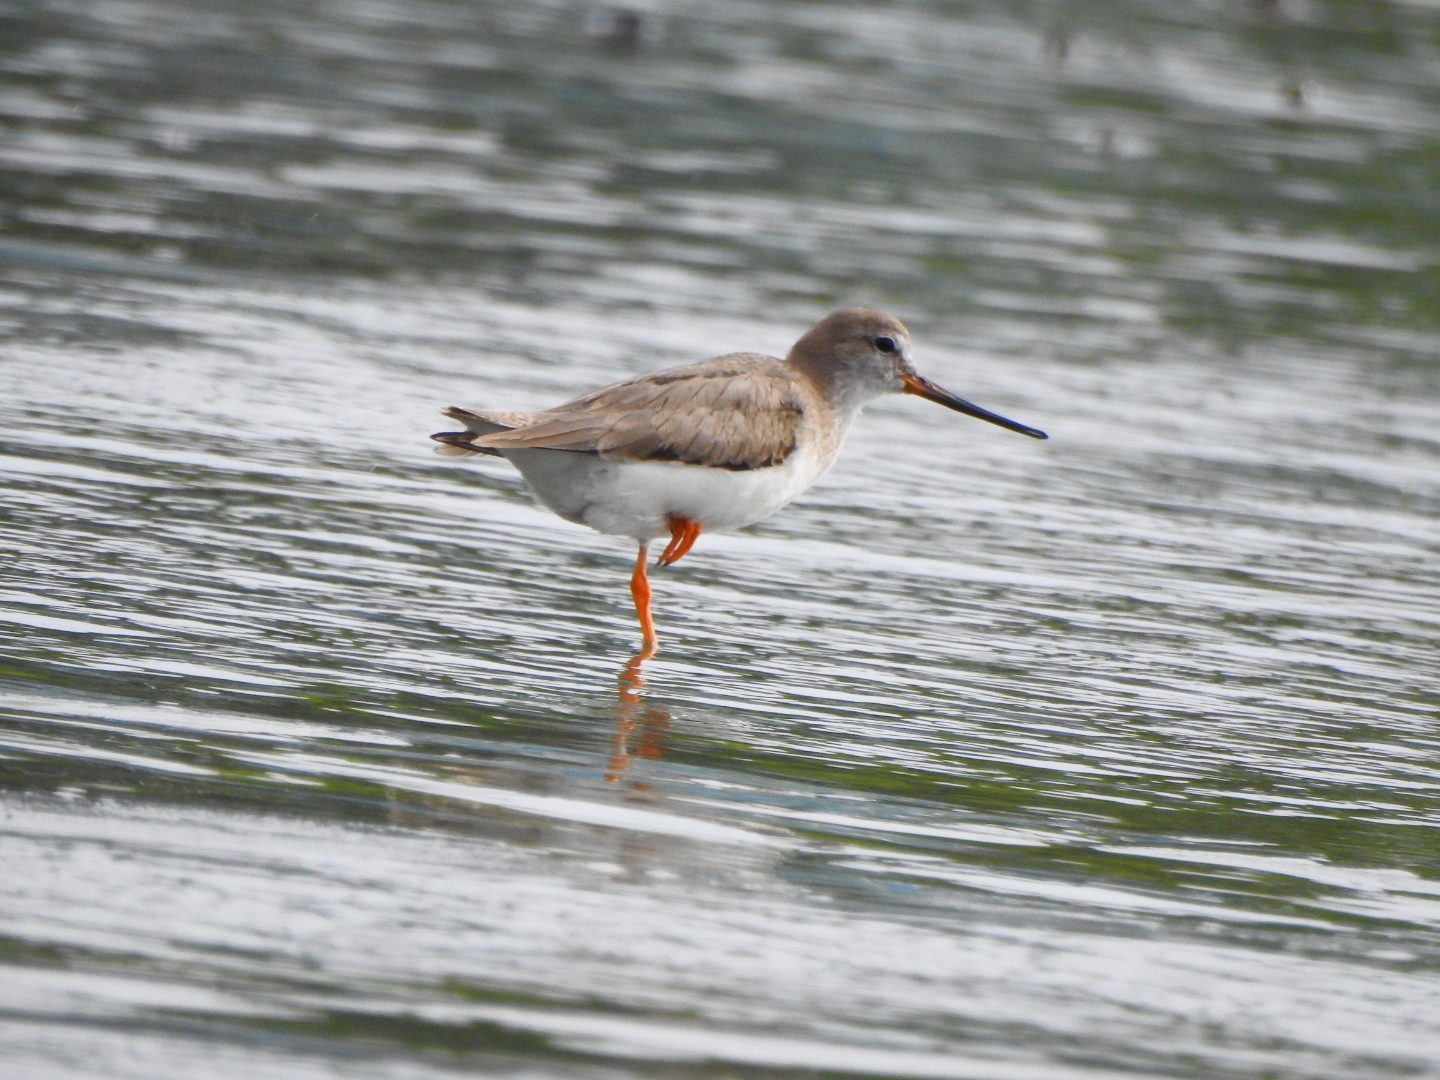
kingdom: Animalia
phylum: Chordata
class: Aves
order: Charadriiformes
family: Scolopacidae
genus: Xenus
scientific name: Xenus cinereus
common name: Terek sandpiper
